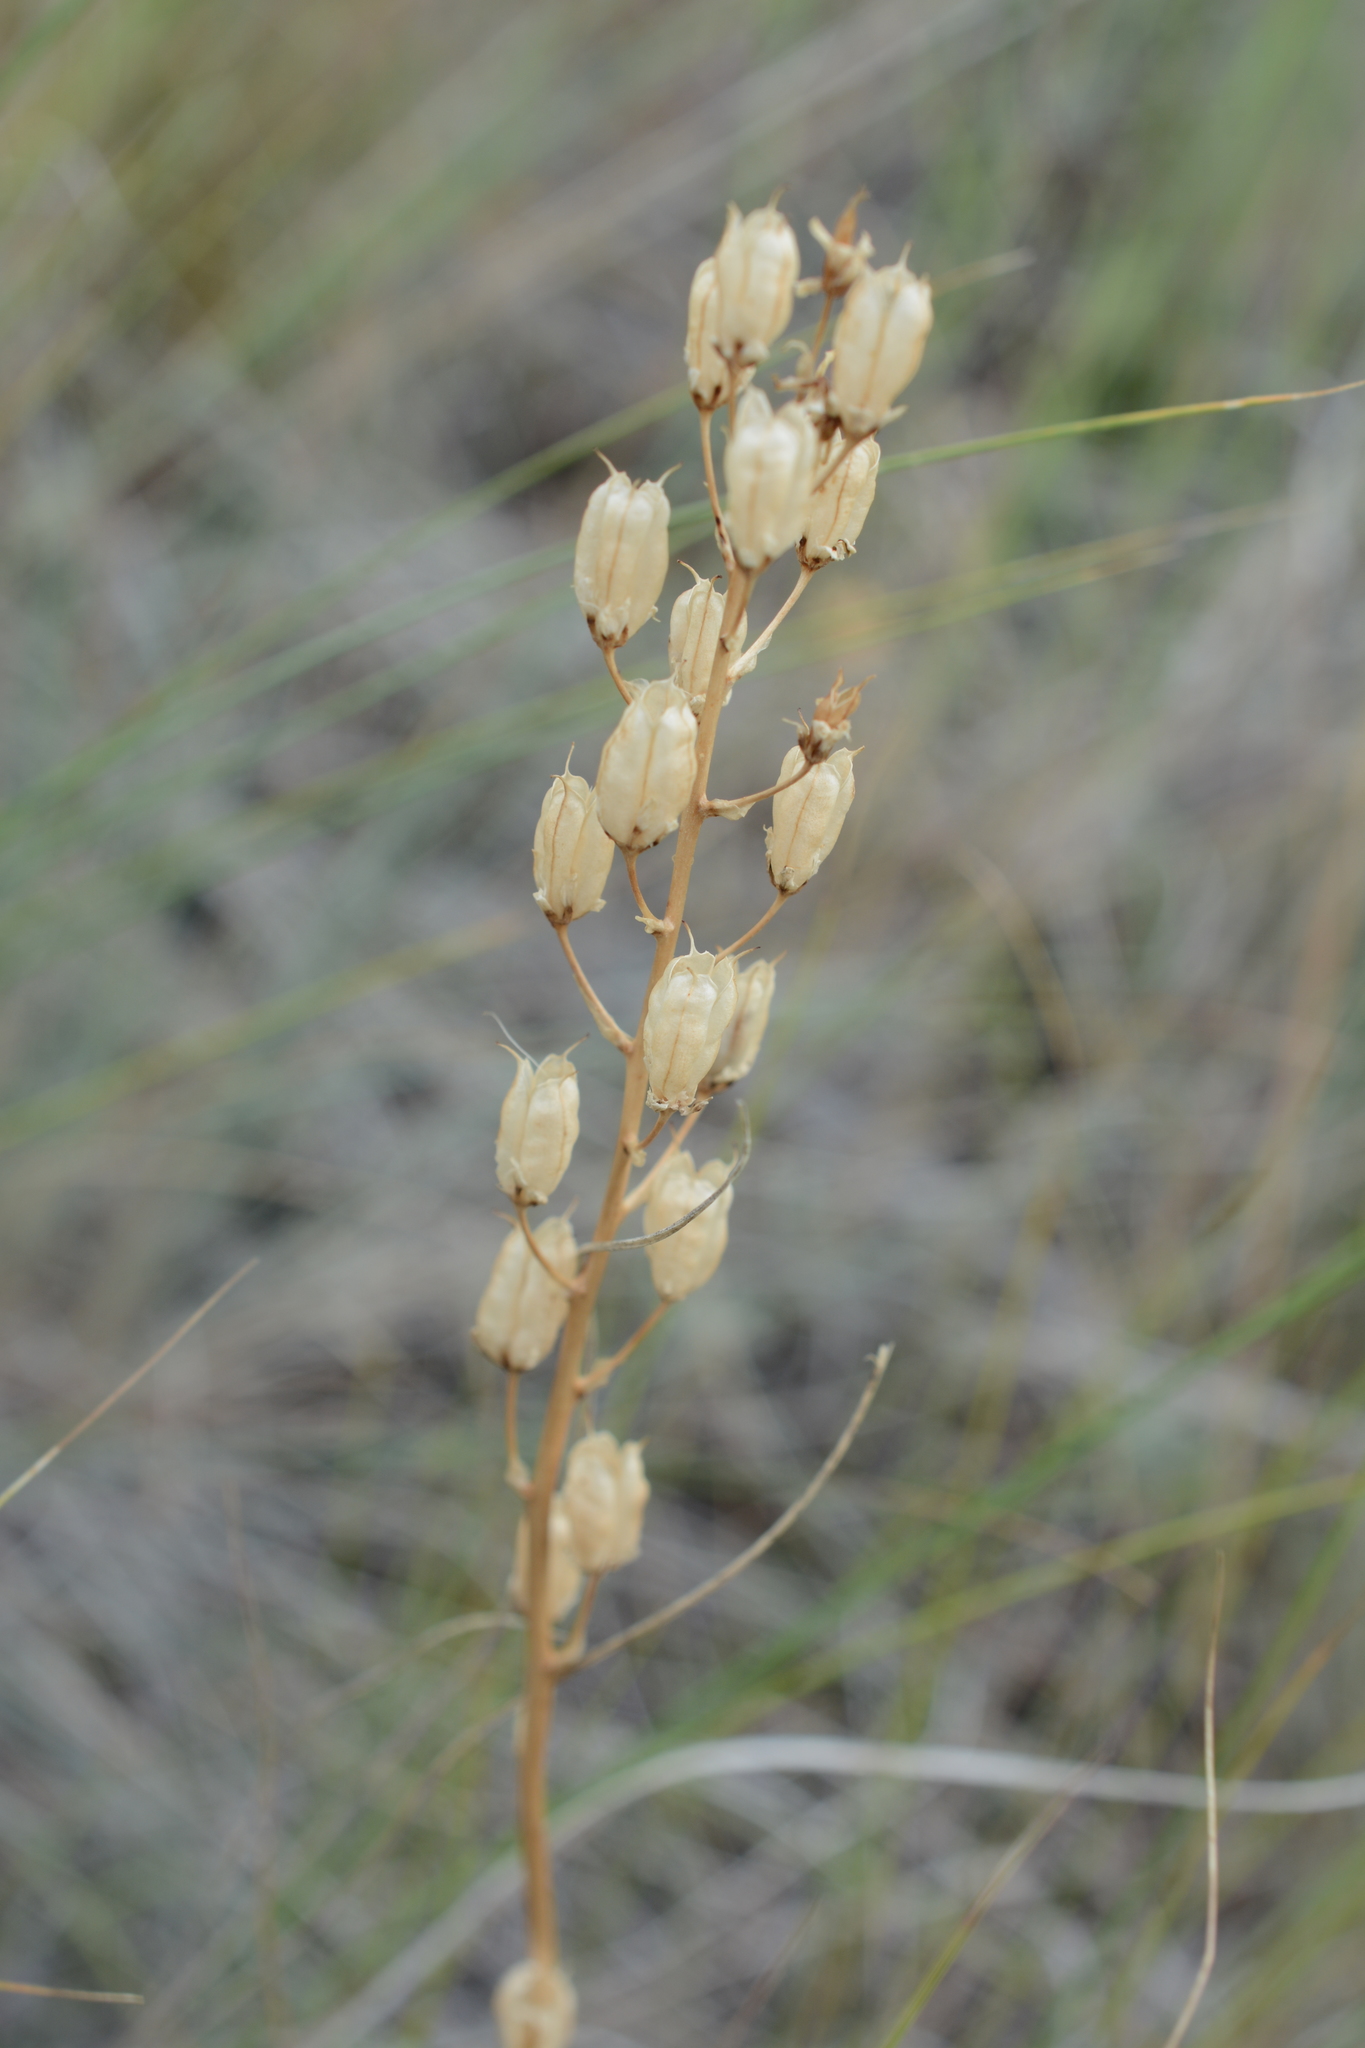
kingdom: Plantae
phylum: Tracheophyta
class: Liliopsida
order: Liliales
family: Melanthiaceae
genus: Toxicoscordion
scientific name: Toxicoscordion venenosum
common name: Meadow death camas
